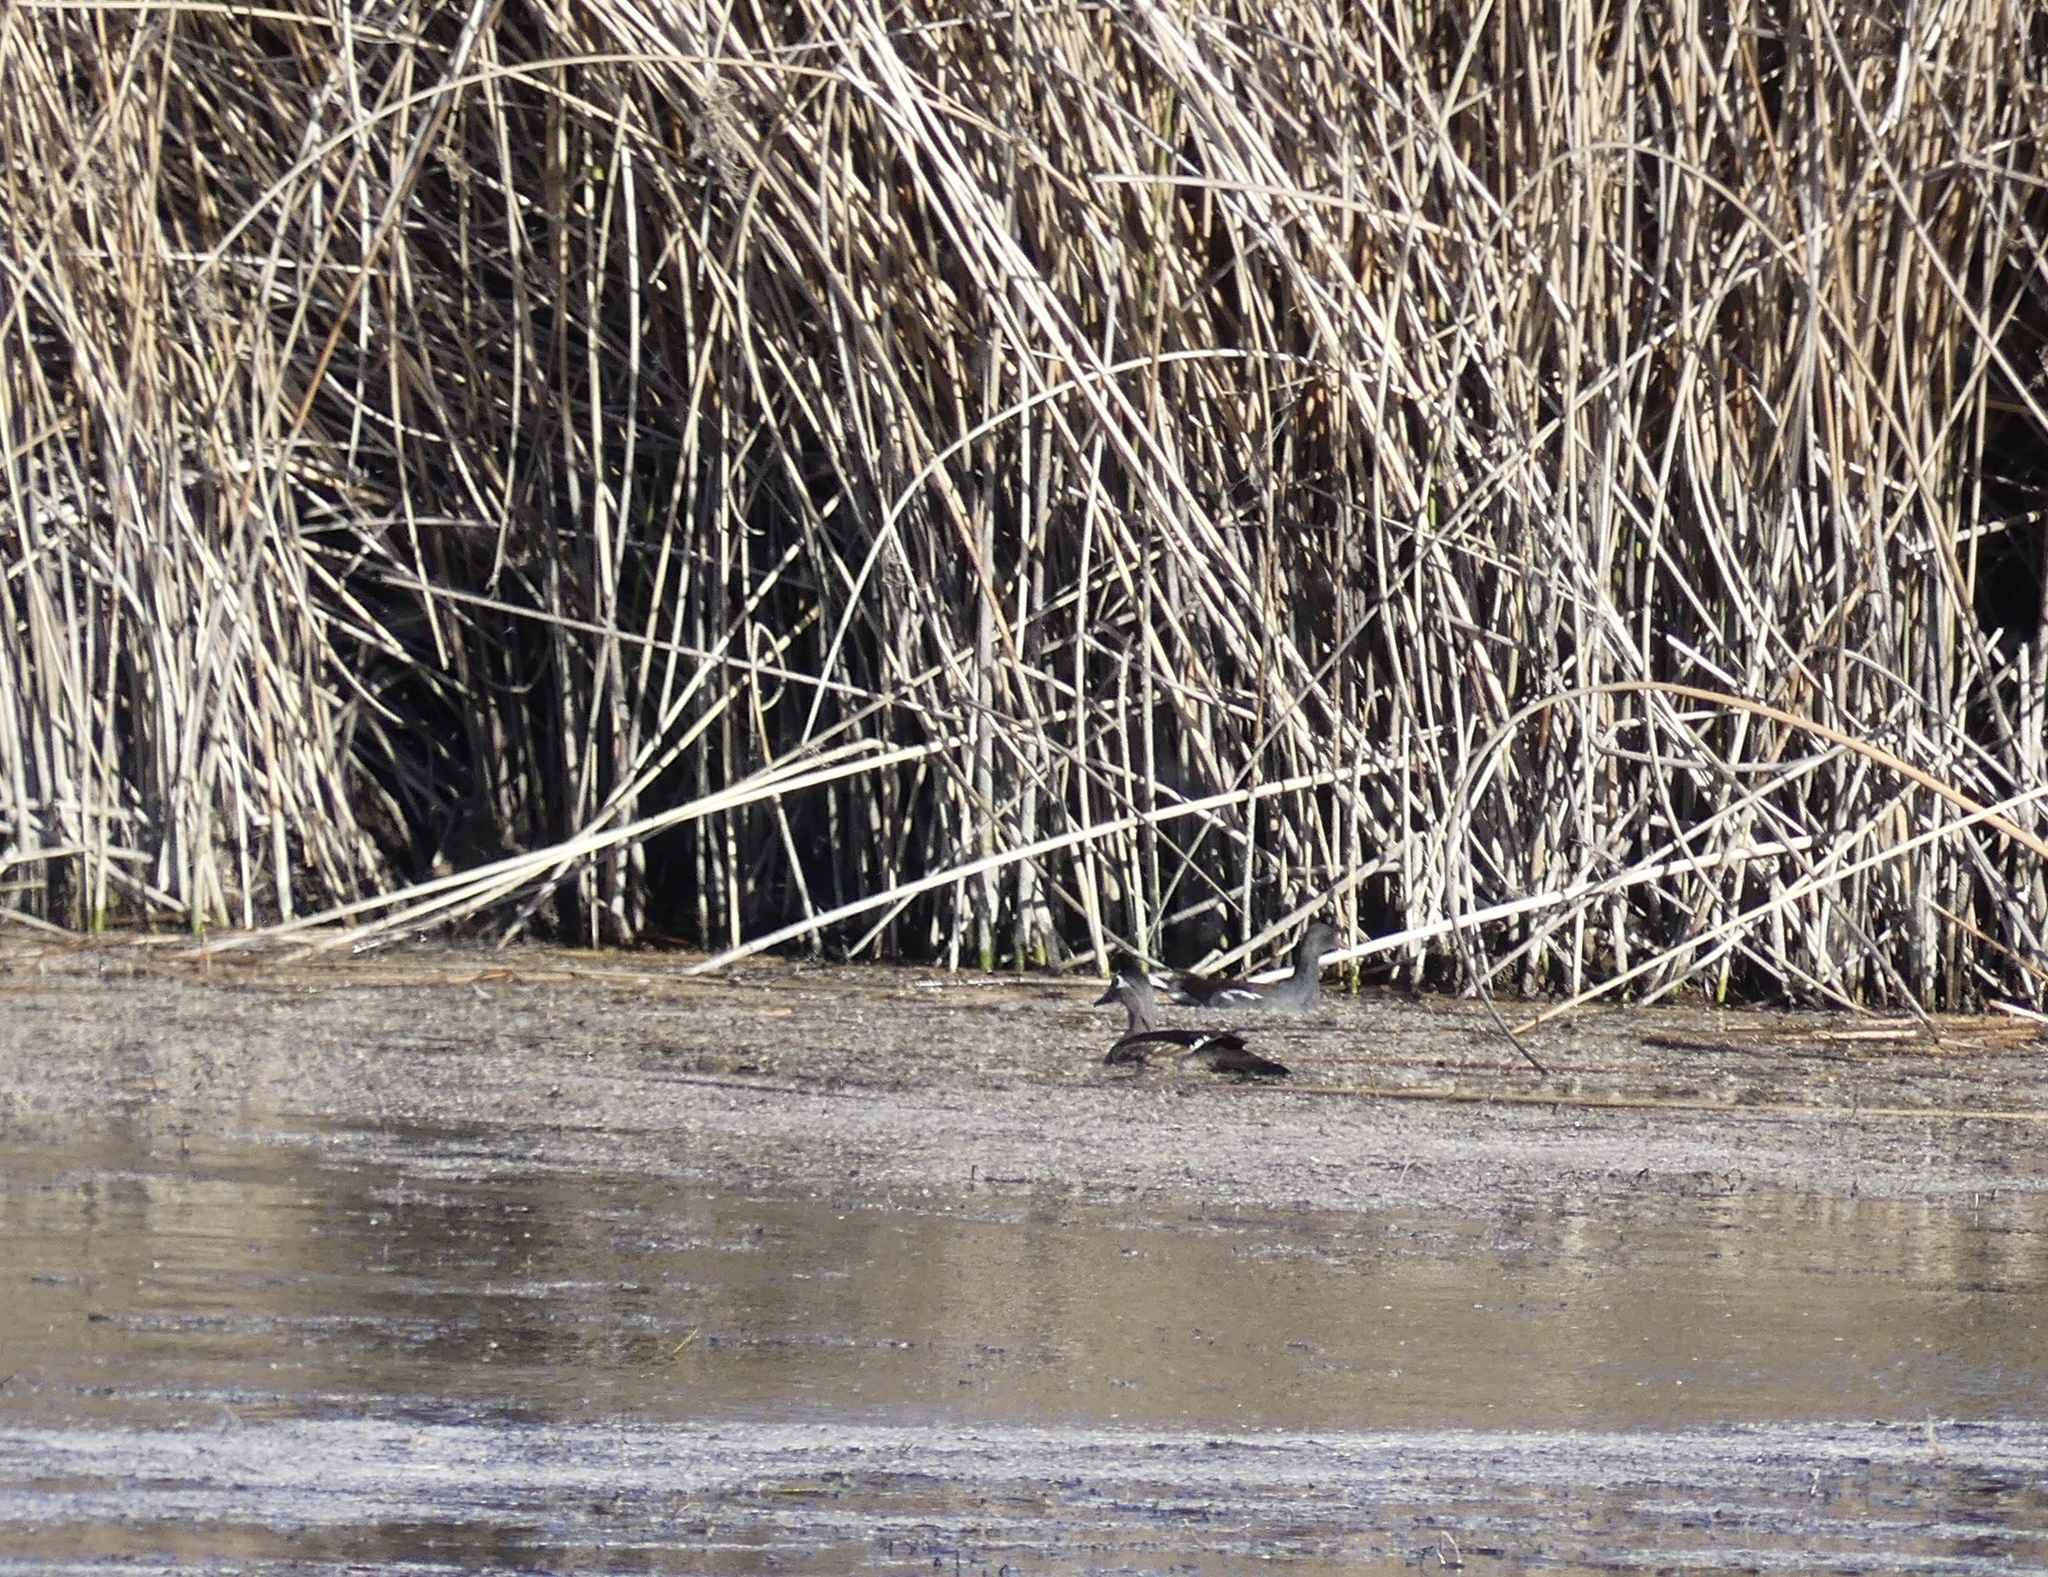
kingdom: Animalia
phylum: Chordata
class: Aves
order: Anseriformes
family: Anatidae
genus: Aix
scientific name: Aix sponsa
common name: Wood duck
